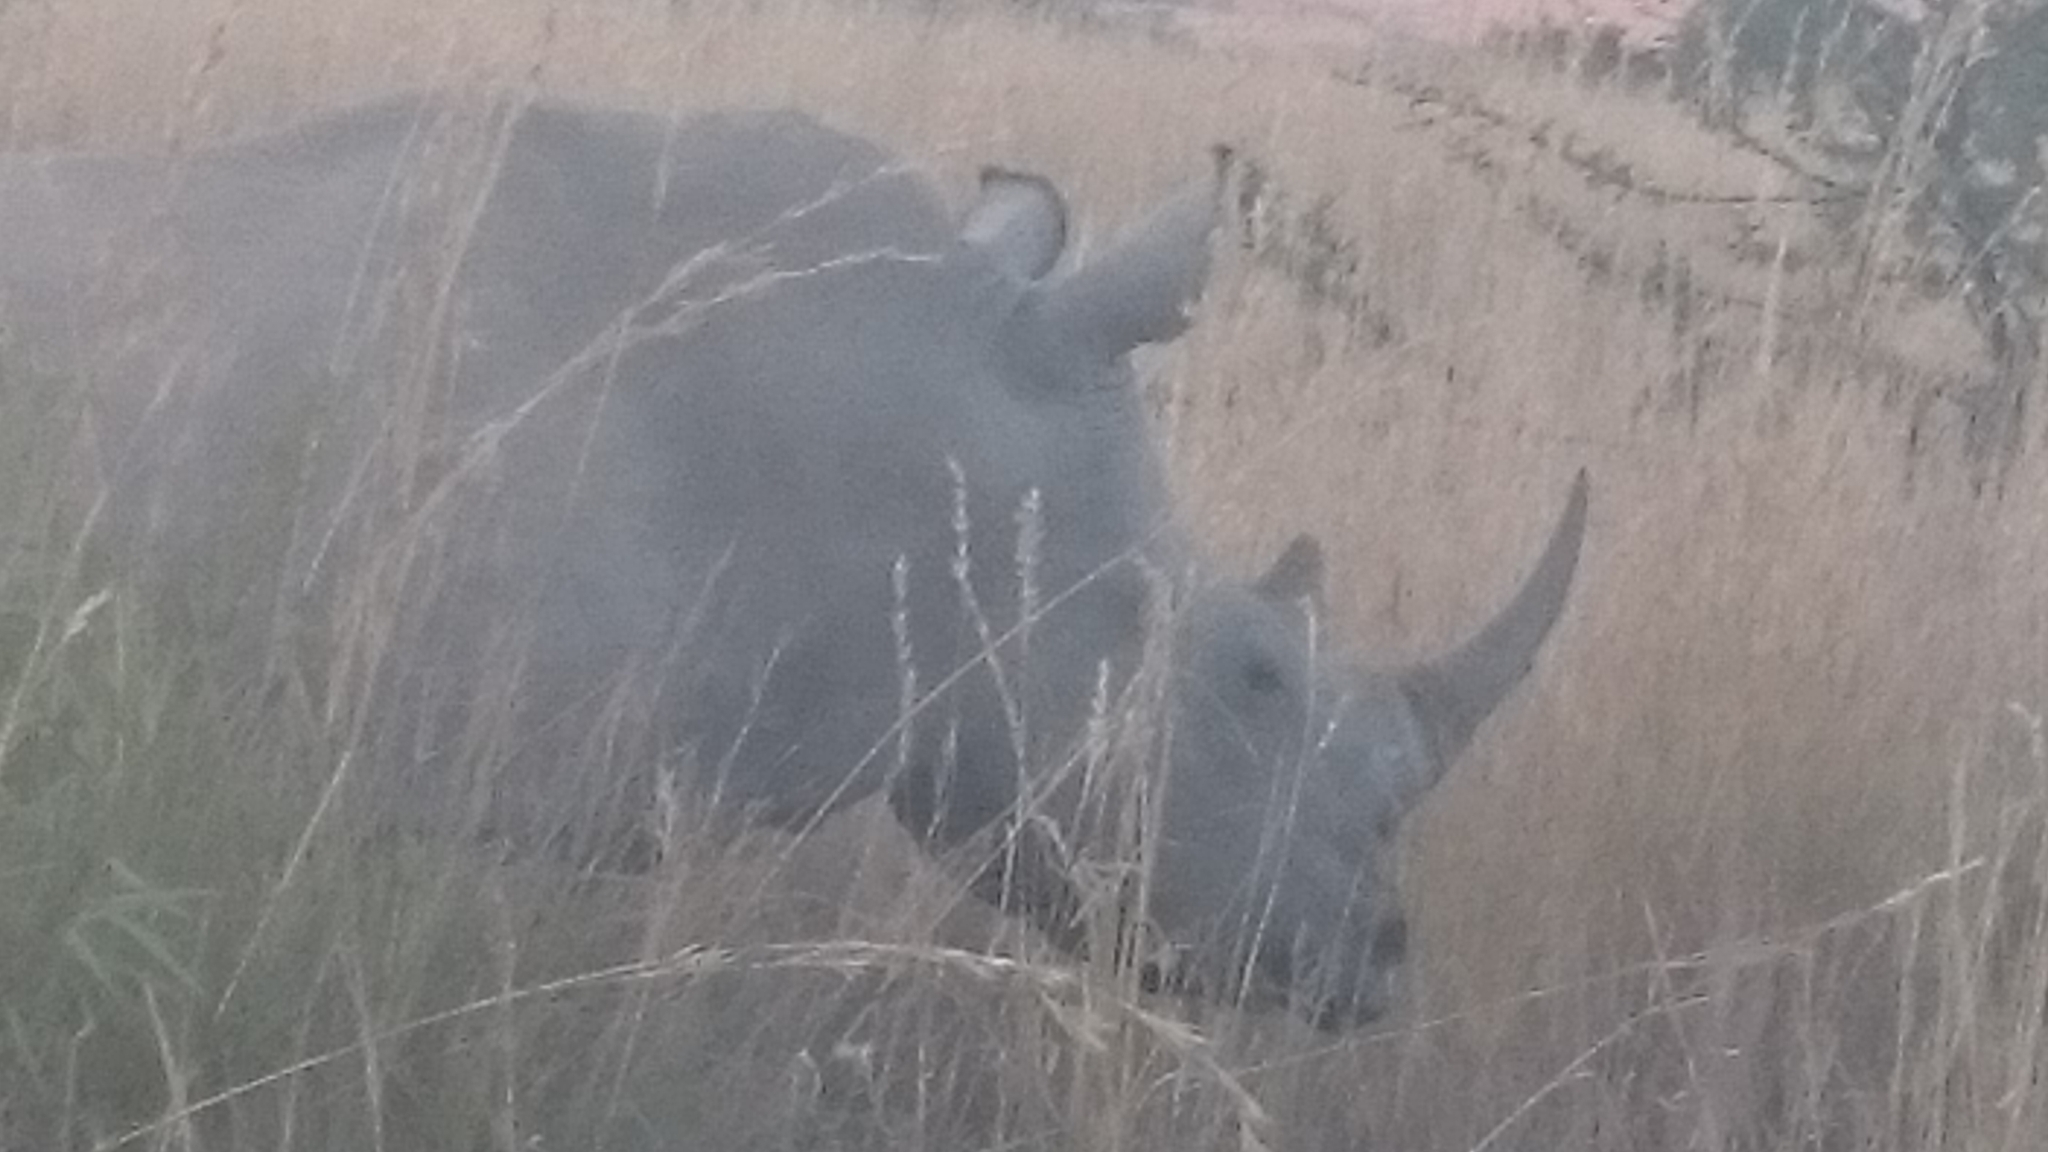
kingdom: Animalia
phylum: Chordata
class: Mammalia
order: Perissodactyla
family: Rhinocerotidae
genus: Ceratotherium
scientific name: Ceratotherium simum
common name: White rhinoceros
